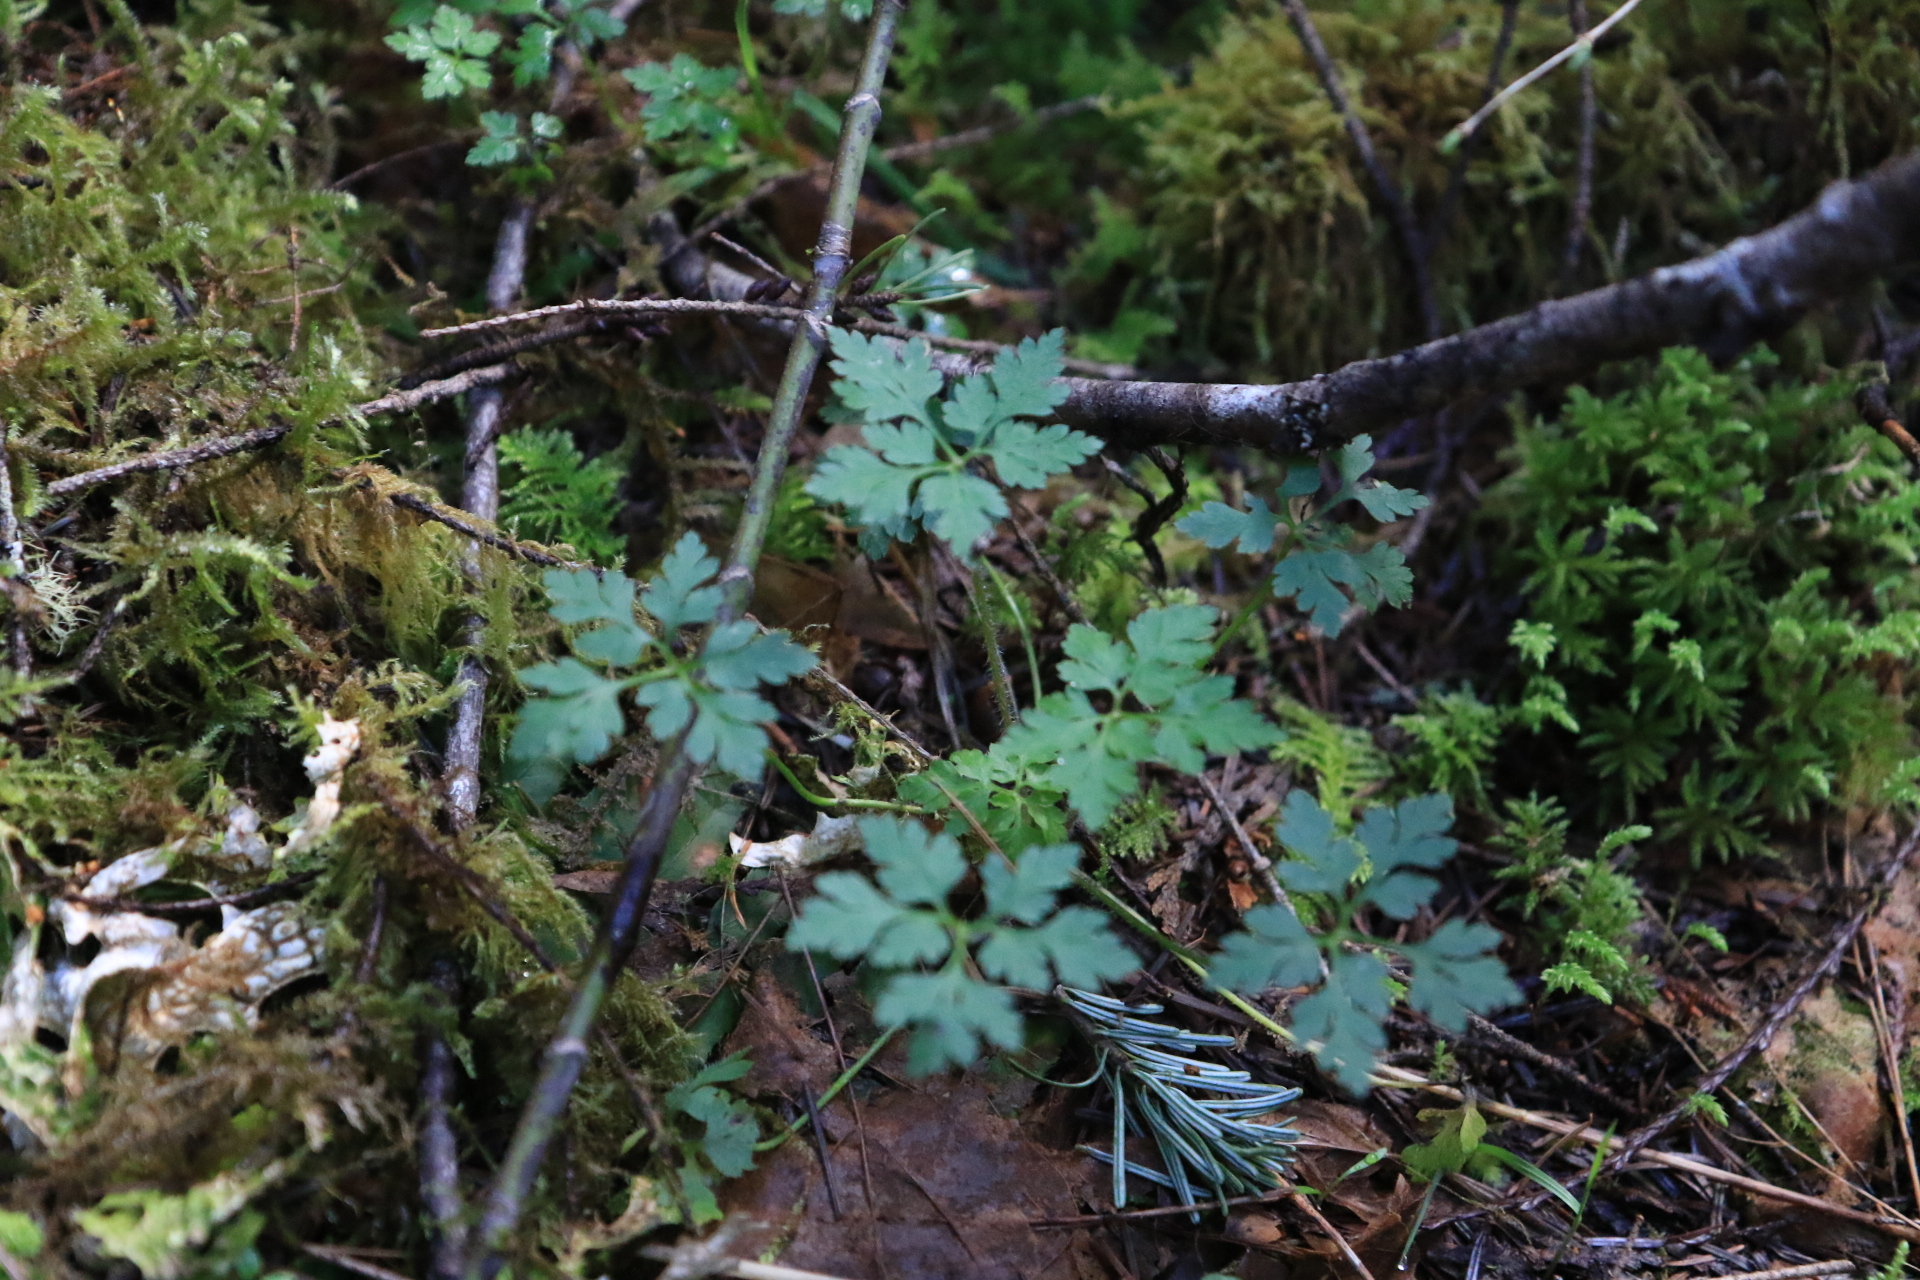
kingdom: Plantae
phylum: Tracheophyta
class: Magnoliopsida
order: Geraniales
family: Geraniaceae
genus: Geranium
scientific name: Geranium robertianum
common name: Herb-robert
